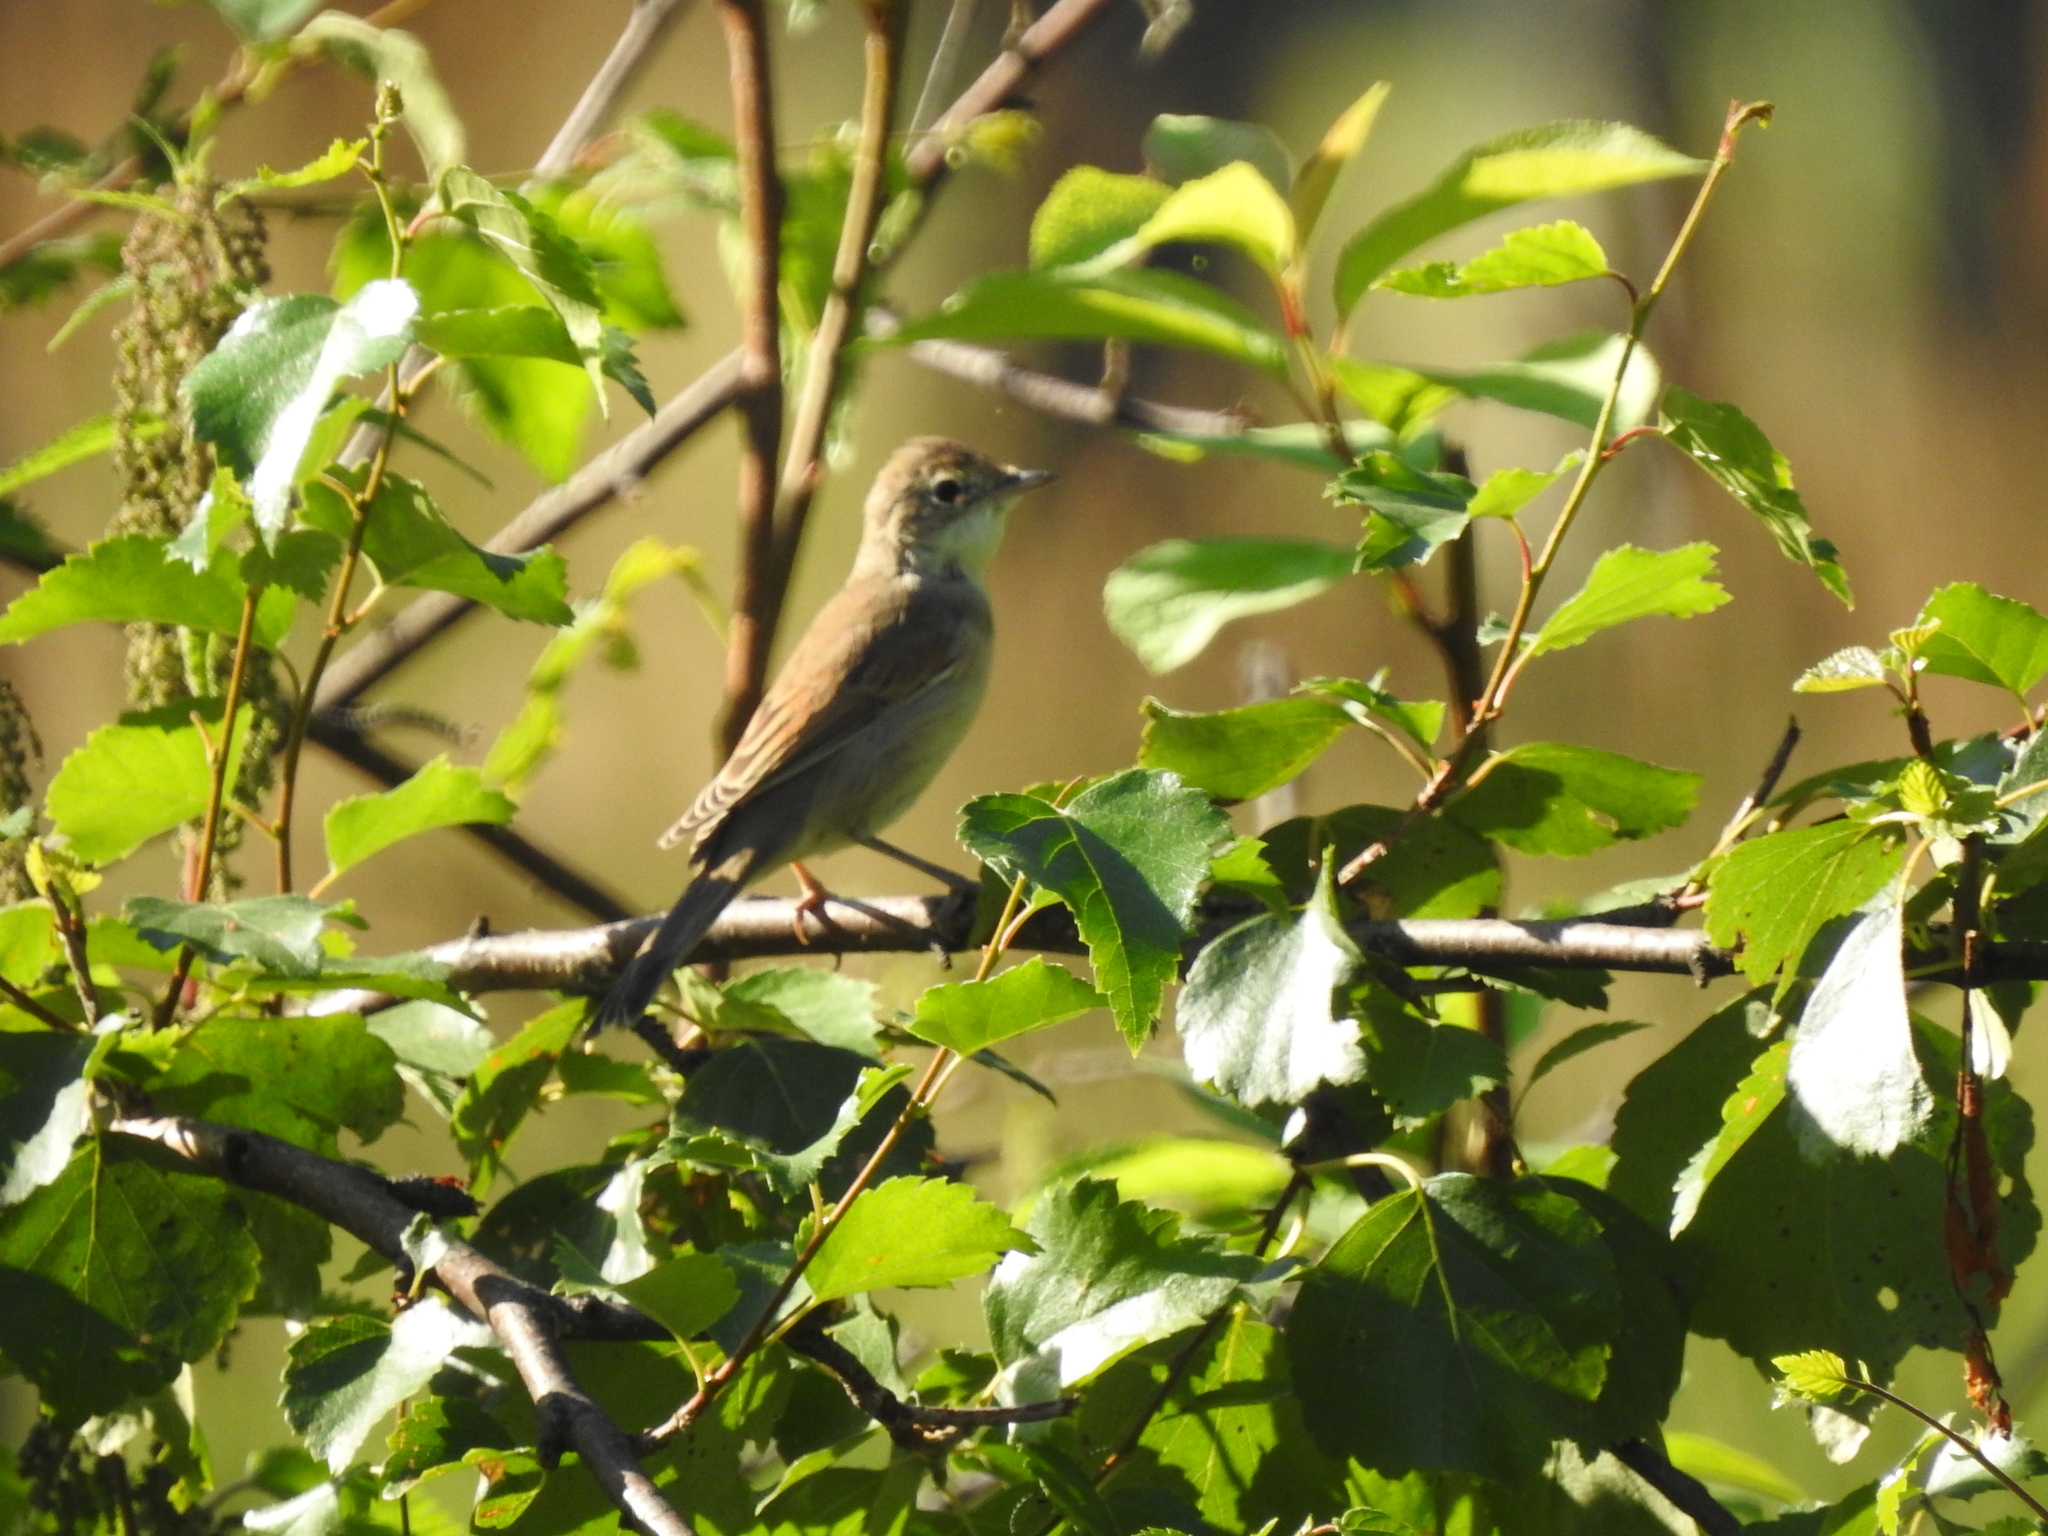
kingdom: Animalia
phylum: Chordata
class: Aves
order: Passeriformes
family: Sylviidae
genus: Sylvia
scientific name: Sylvia communis
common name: Common whitethroat
